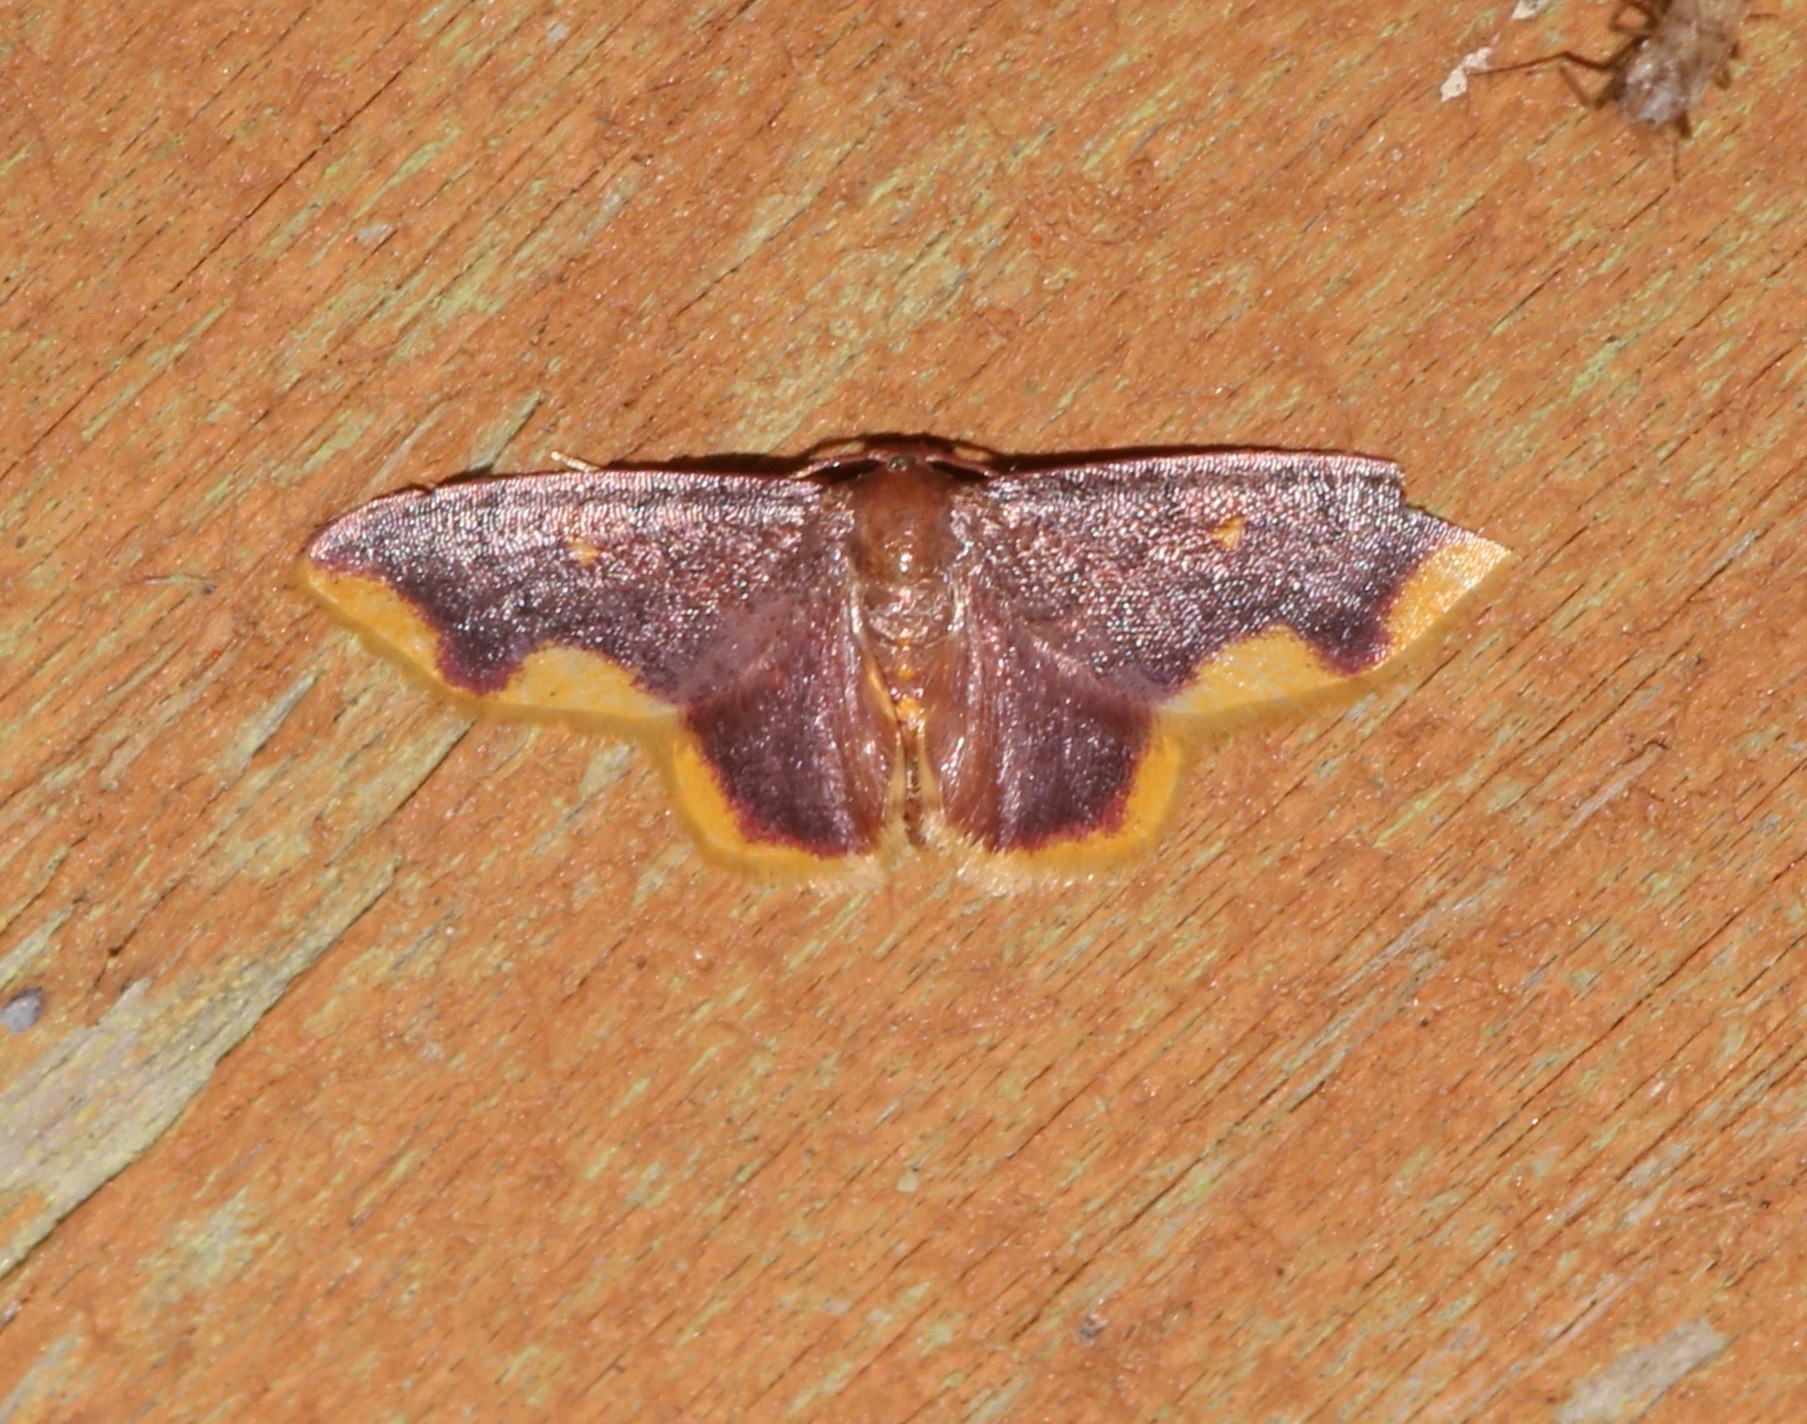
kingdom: Animalia
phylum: Arthropoda
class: Insecta
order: Lepidoptera
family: Geometridae
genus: Lophosis
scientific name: Lophosis labeculata
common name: Stained lophosis moth
